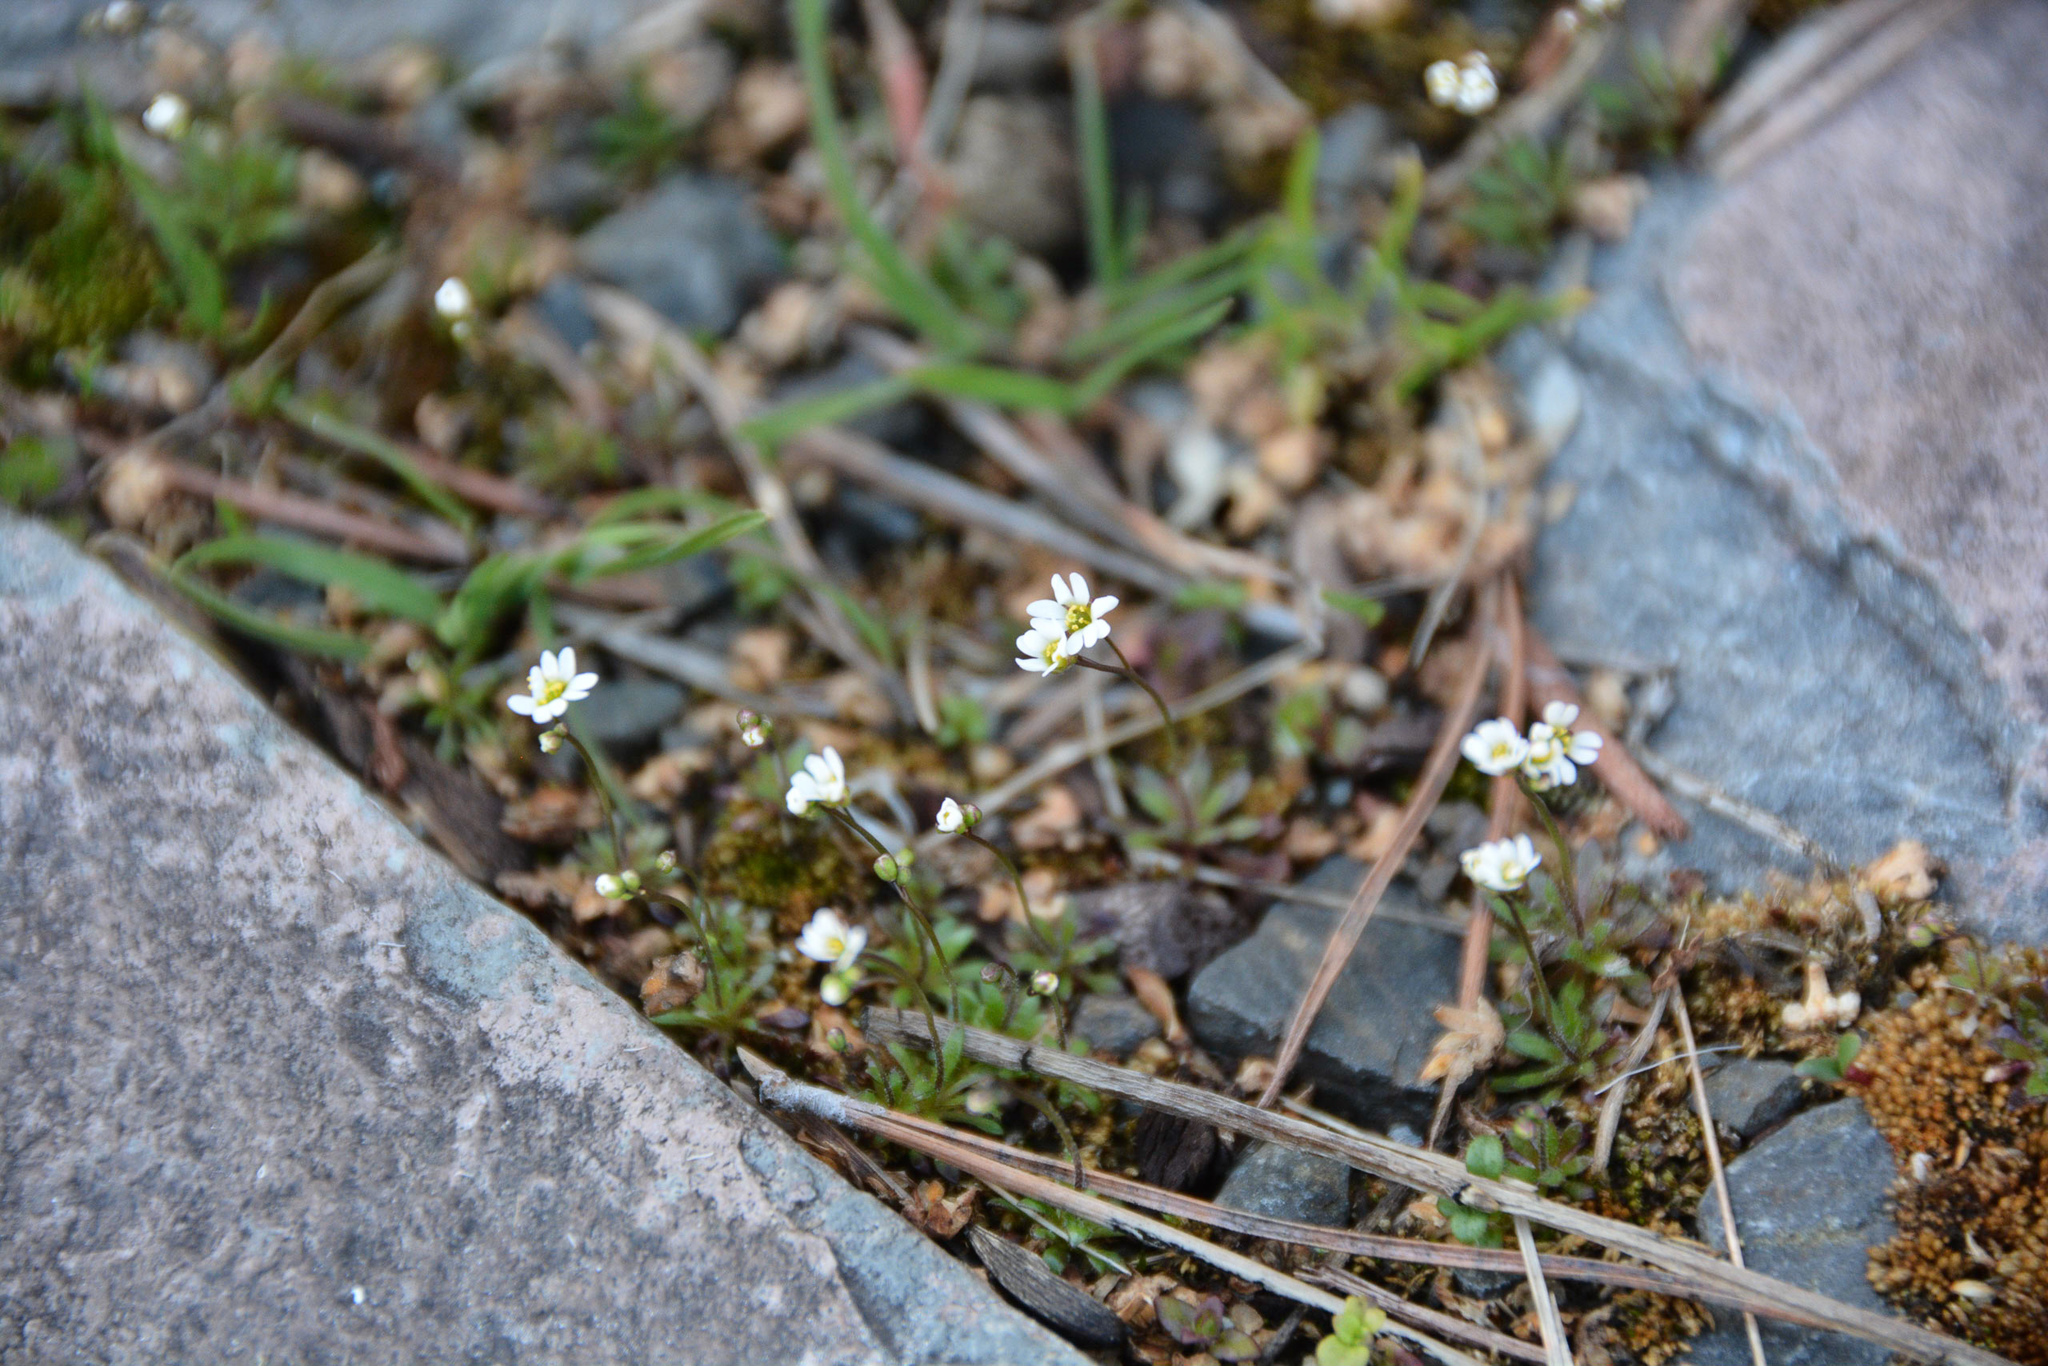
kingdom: Plantae
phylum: Tracheophyta
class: Magnoliopsida
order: Brassicales
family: Brassicaceae
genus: Draba
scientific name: Draba verna
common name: Spring draba
